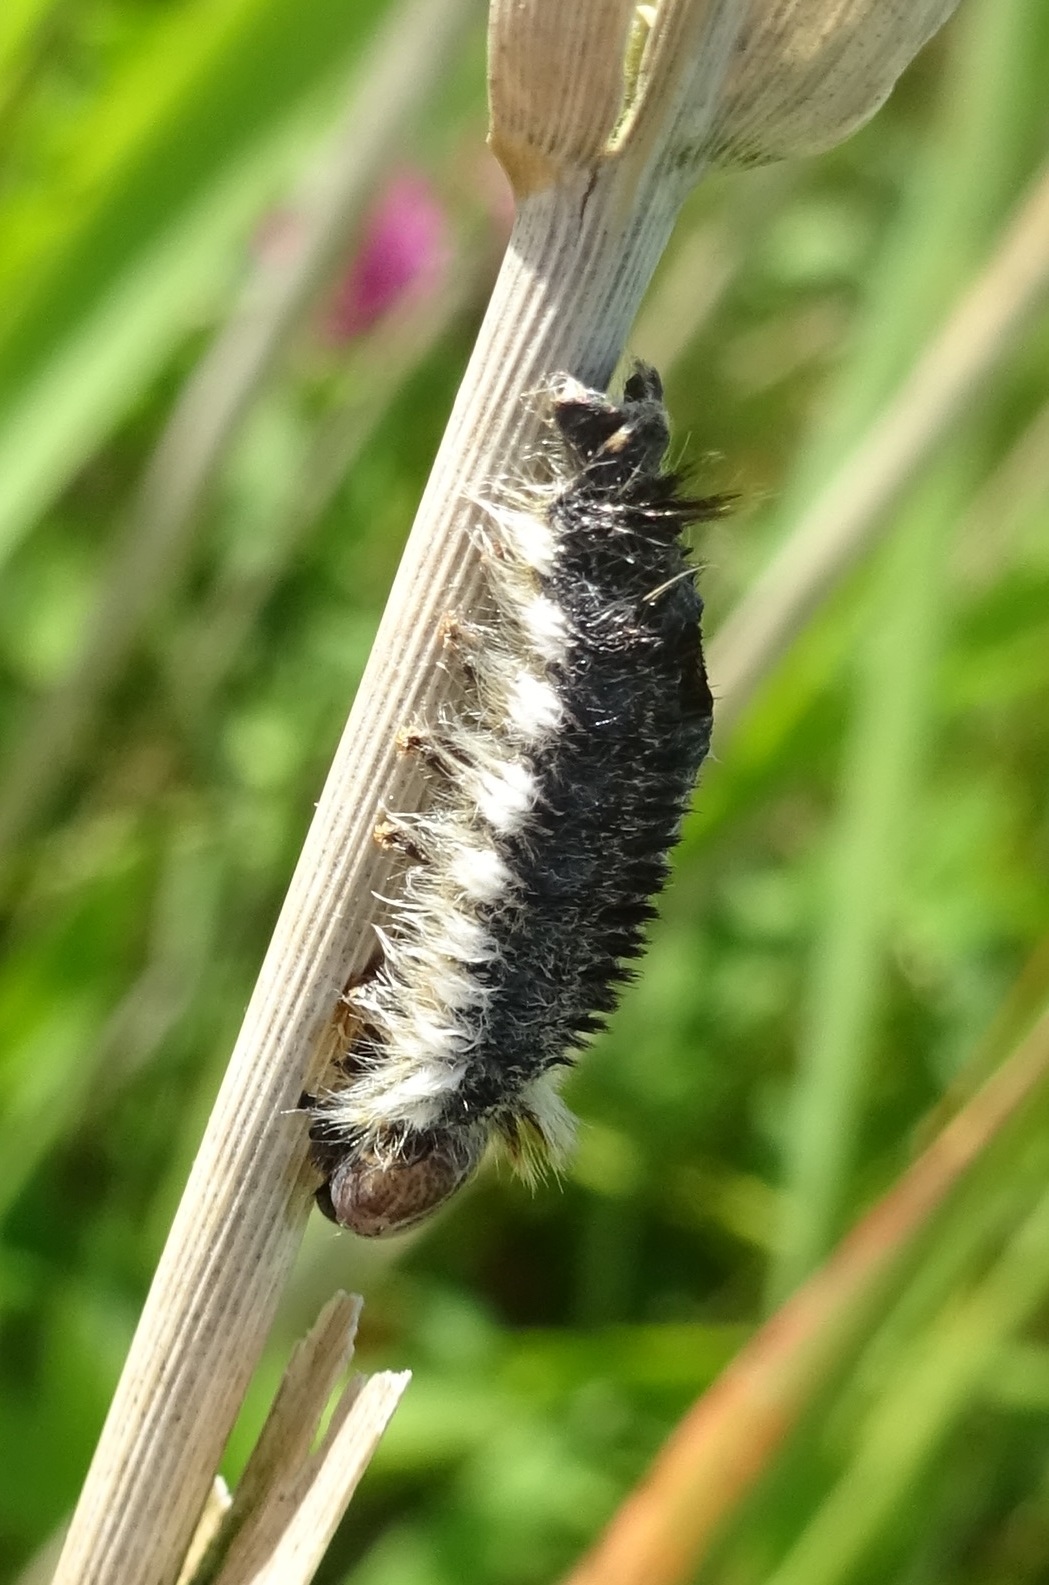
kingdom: Animalia
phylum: Arthropoda
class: Insecta
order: Lepidoptera
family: Lasiocampidae
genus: Euthrix
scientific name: Euthrix potatoria
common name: Drinker
